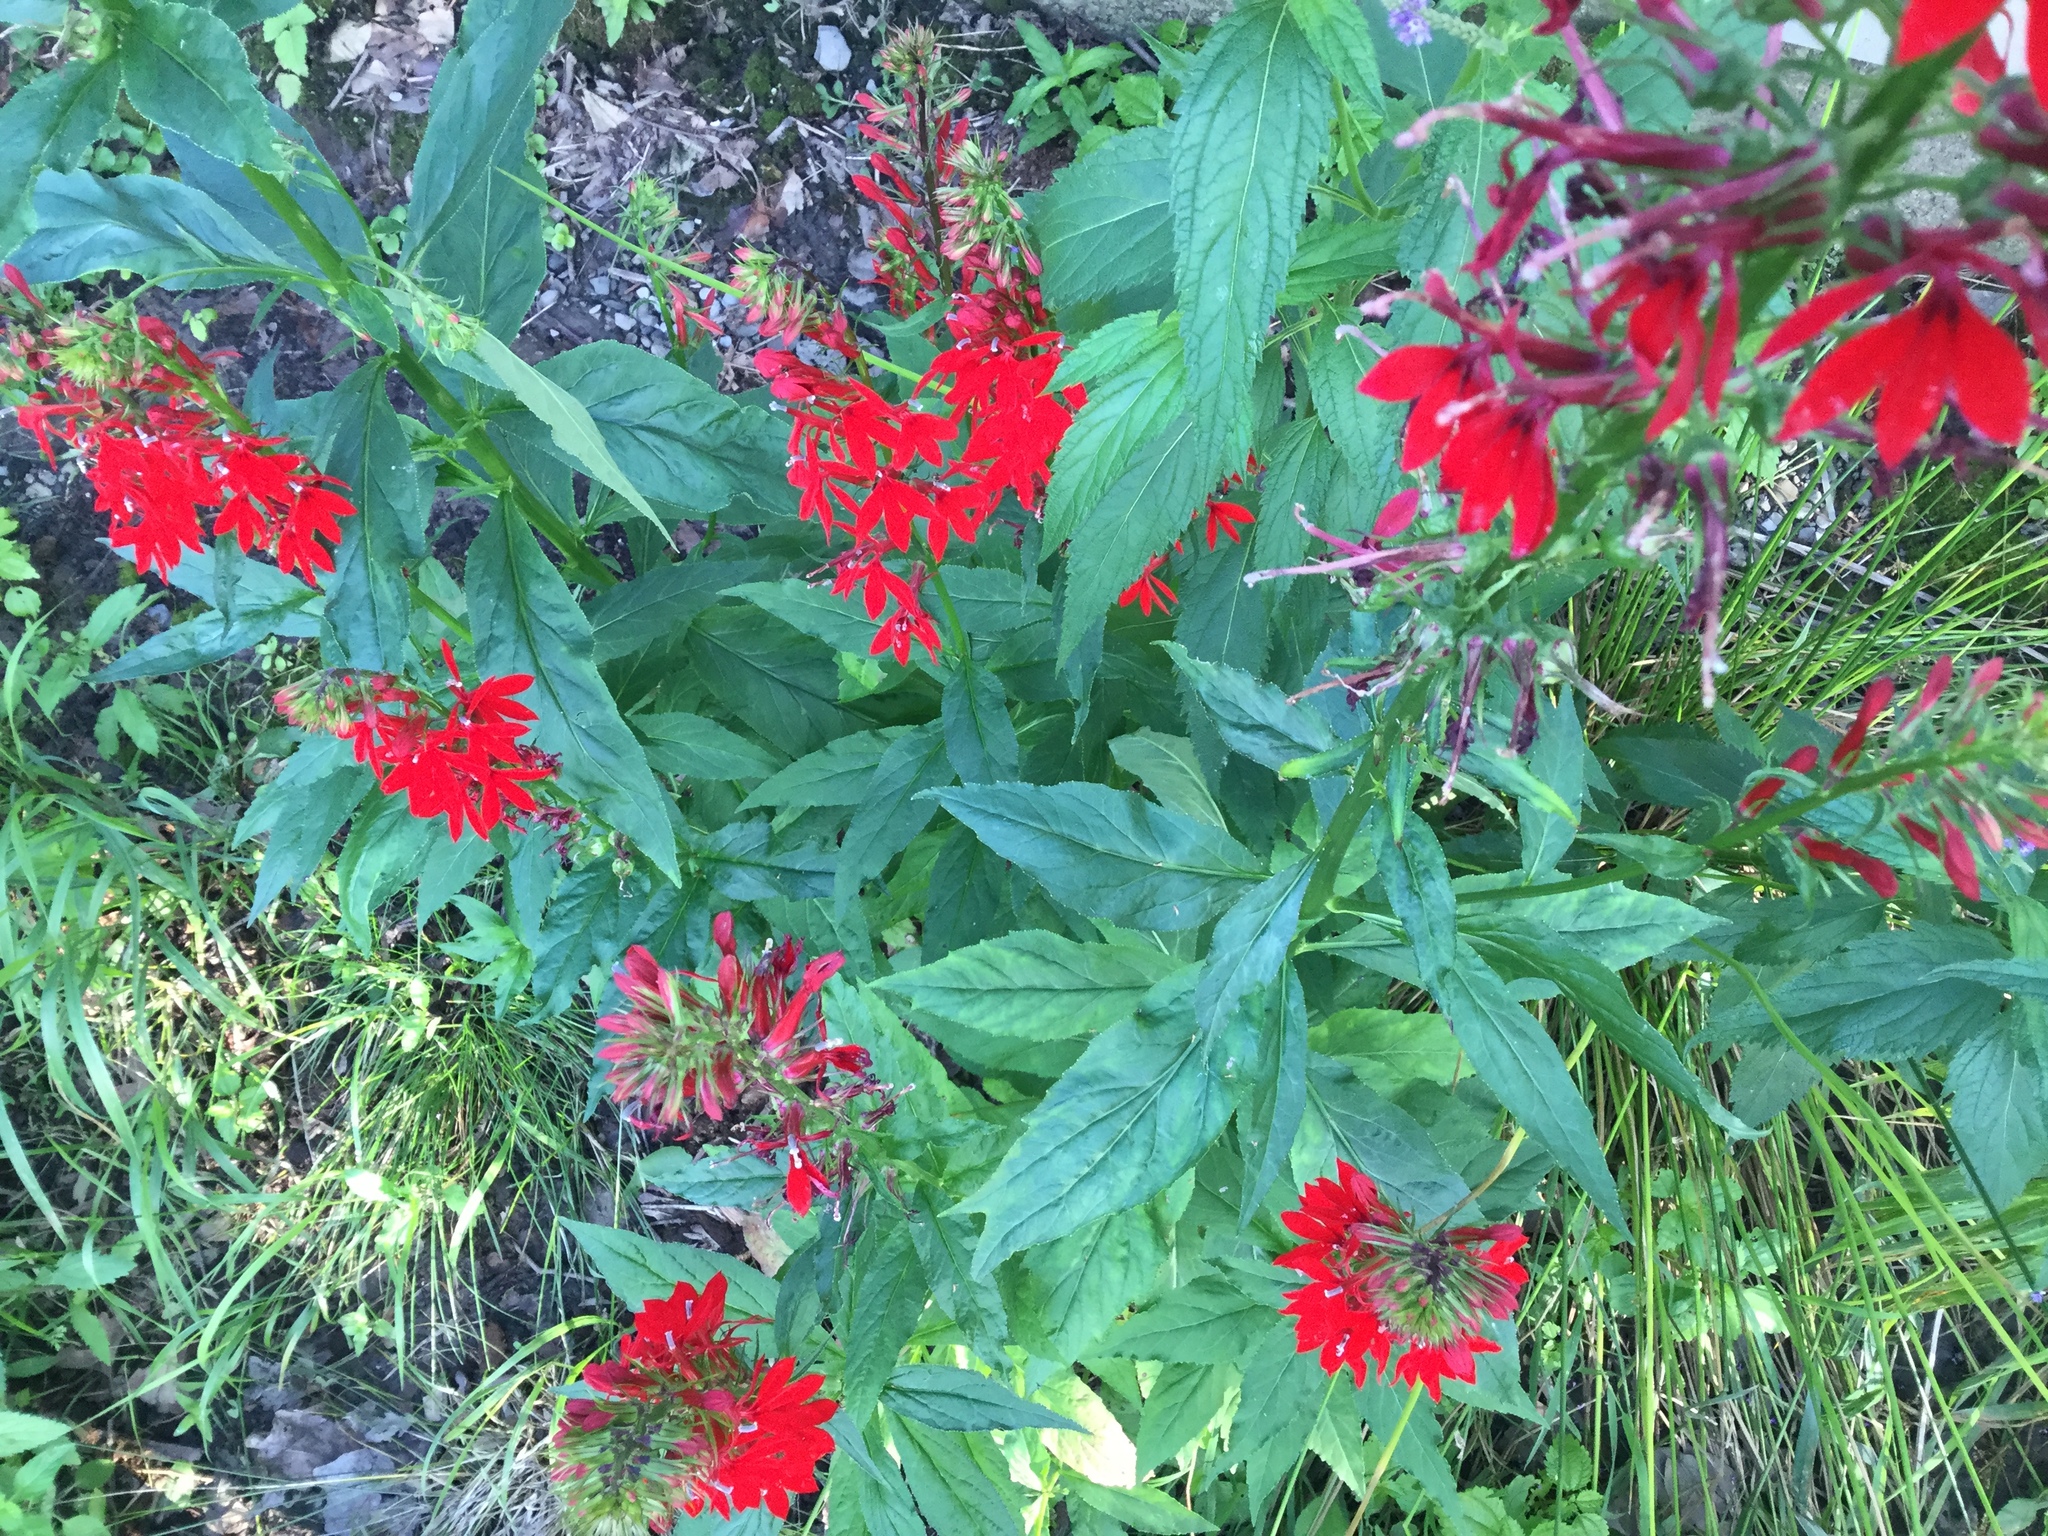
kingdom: Plantae
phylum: Tracheophyta
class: Magnoliopsida
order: Asterales
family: Campanulaceae
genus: Lobelia
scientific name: Lobelia cardinalis
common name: Cardinal flower
